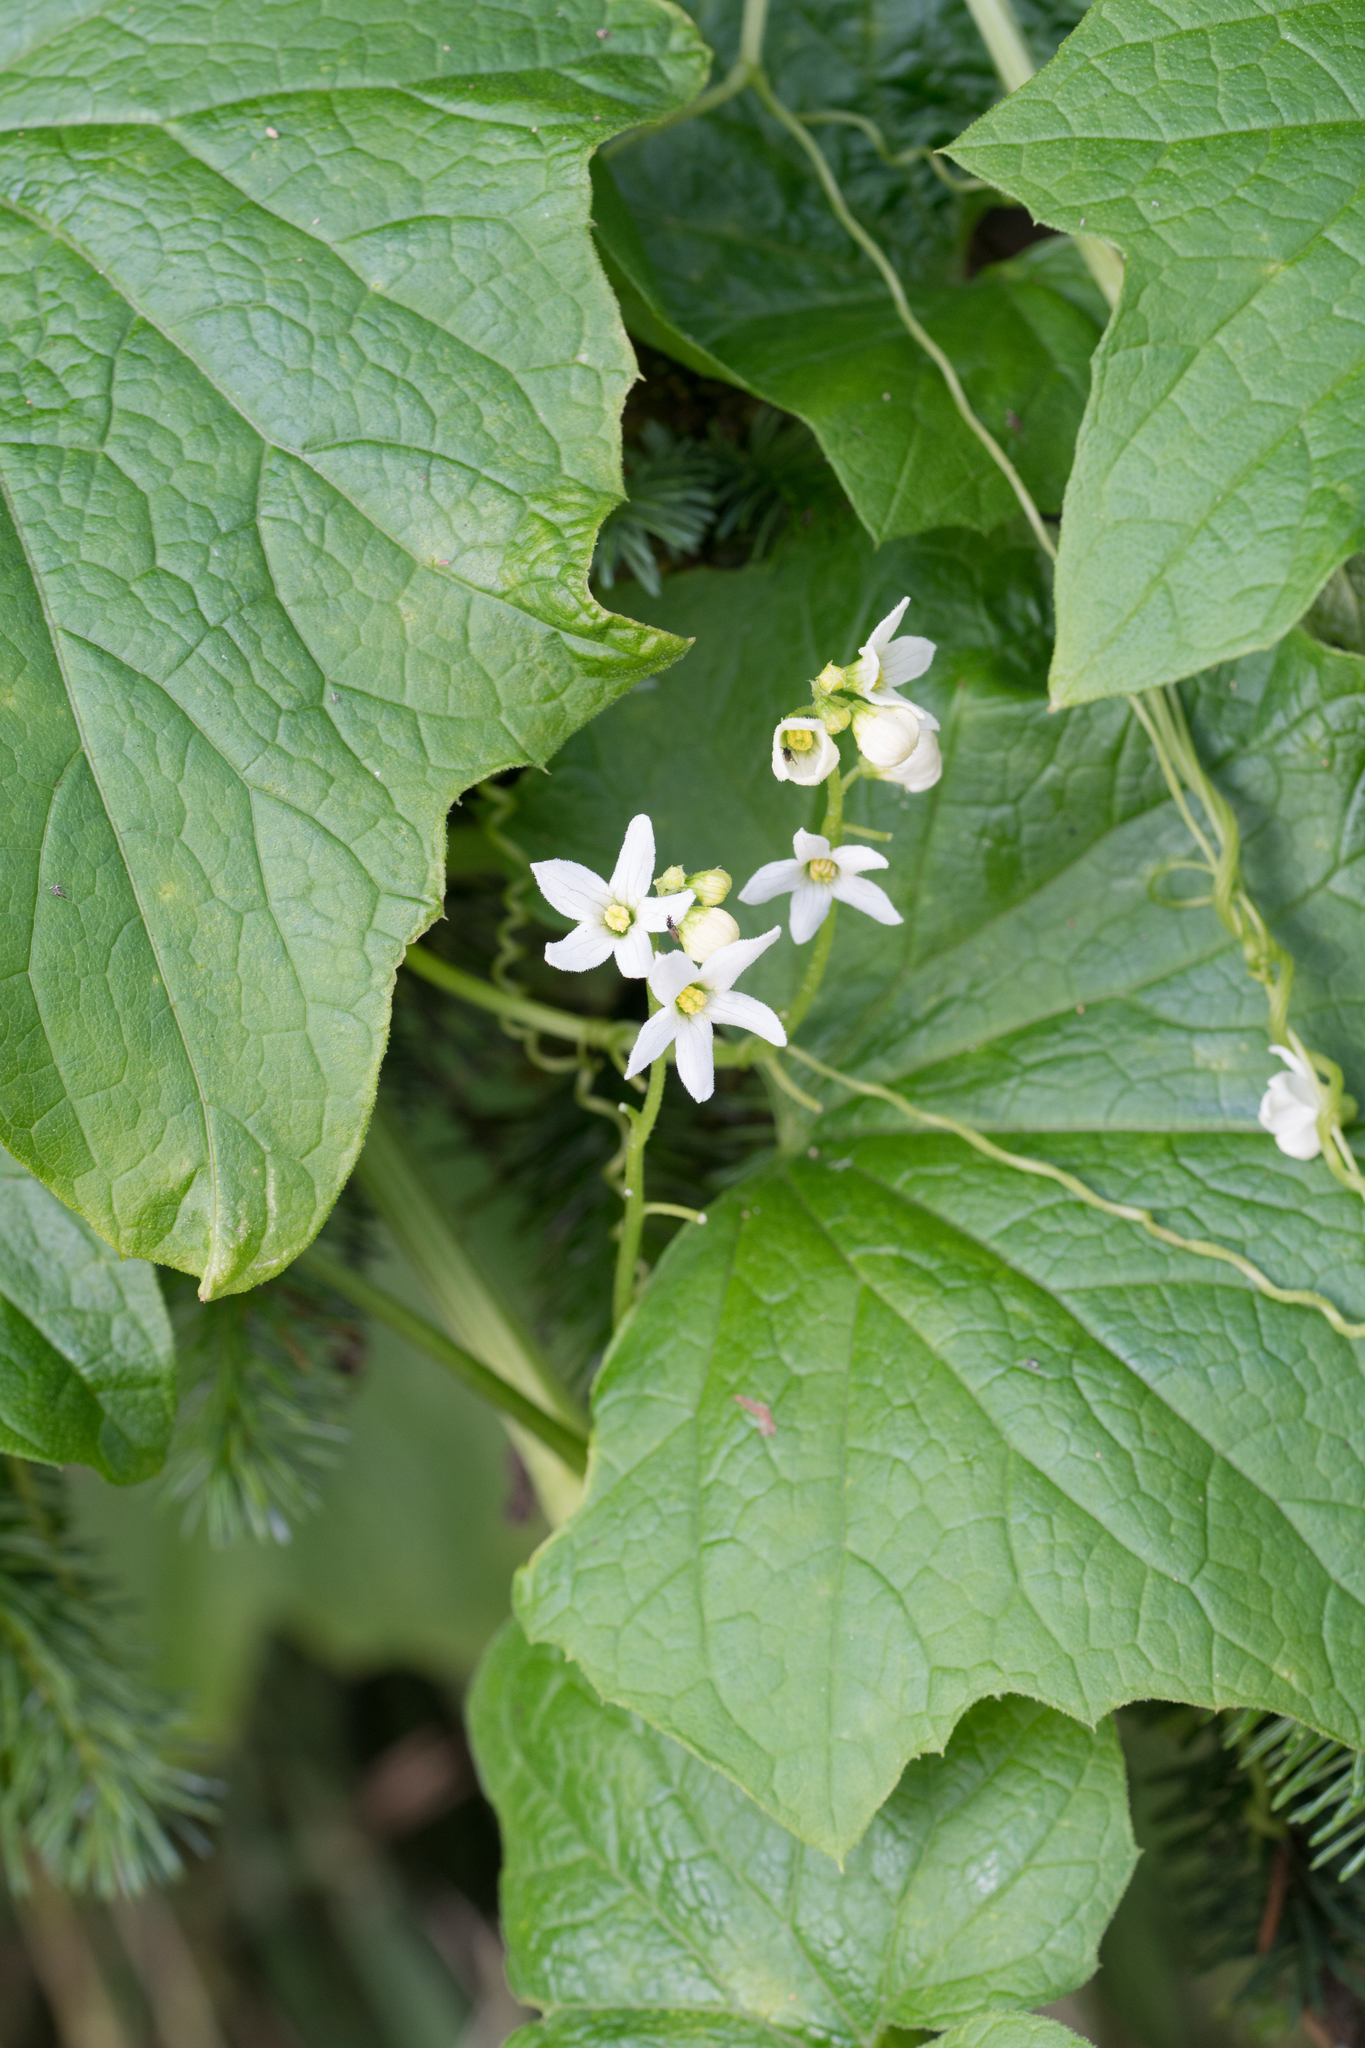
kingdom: Plantae
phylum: Tracheophyta
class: Magnoliopsida
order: Cucurbitales
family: Cucurbitaceae
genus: Marah
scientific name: Marah oregana
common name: Coastal manroot
